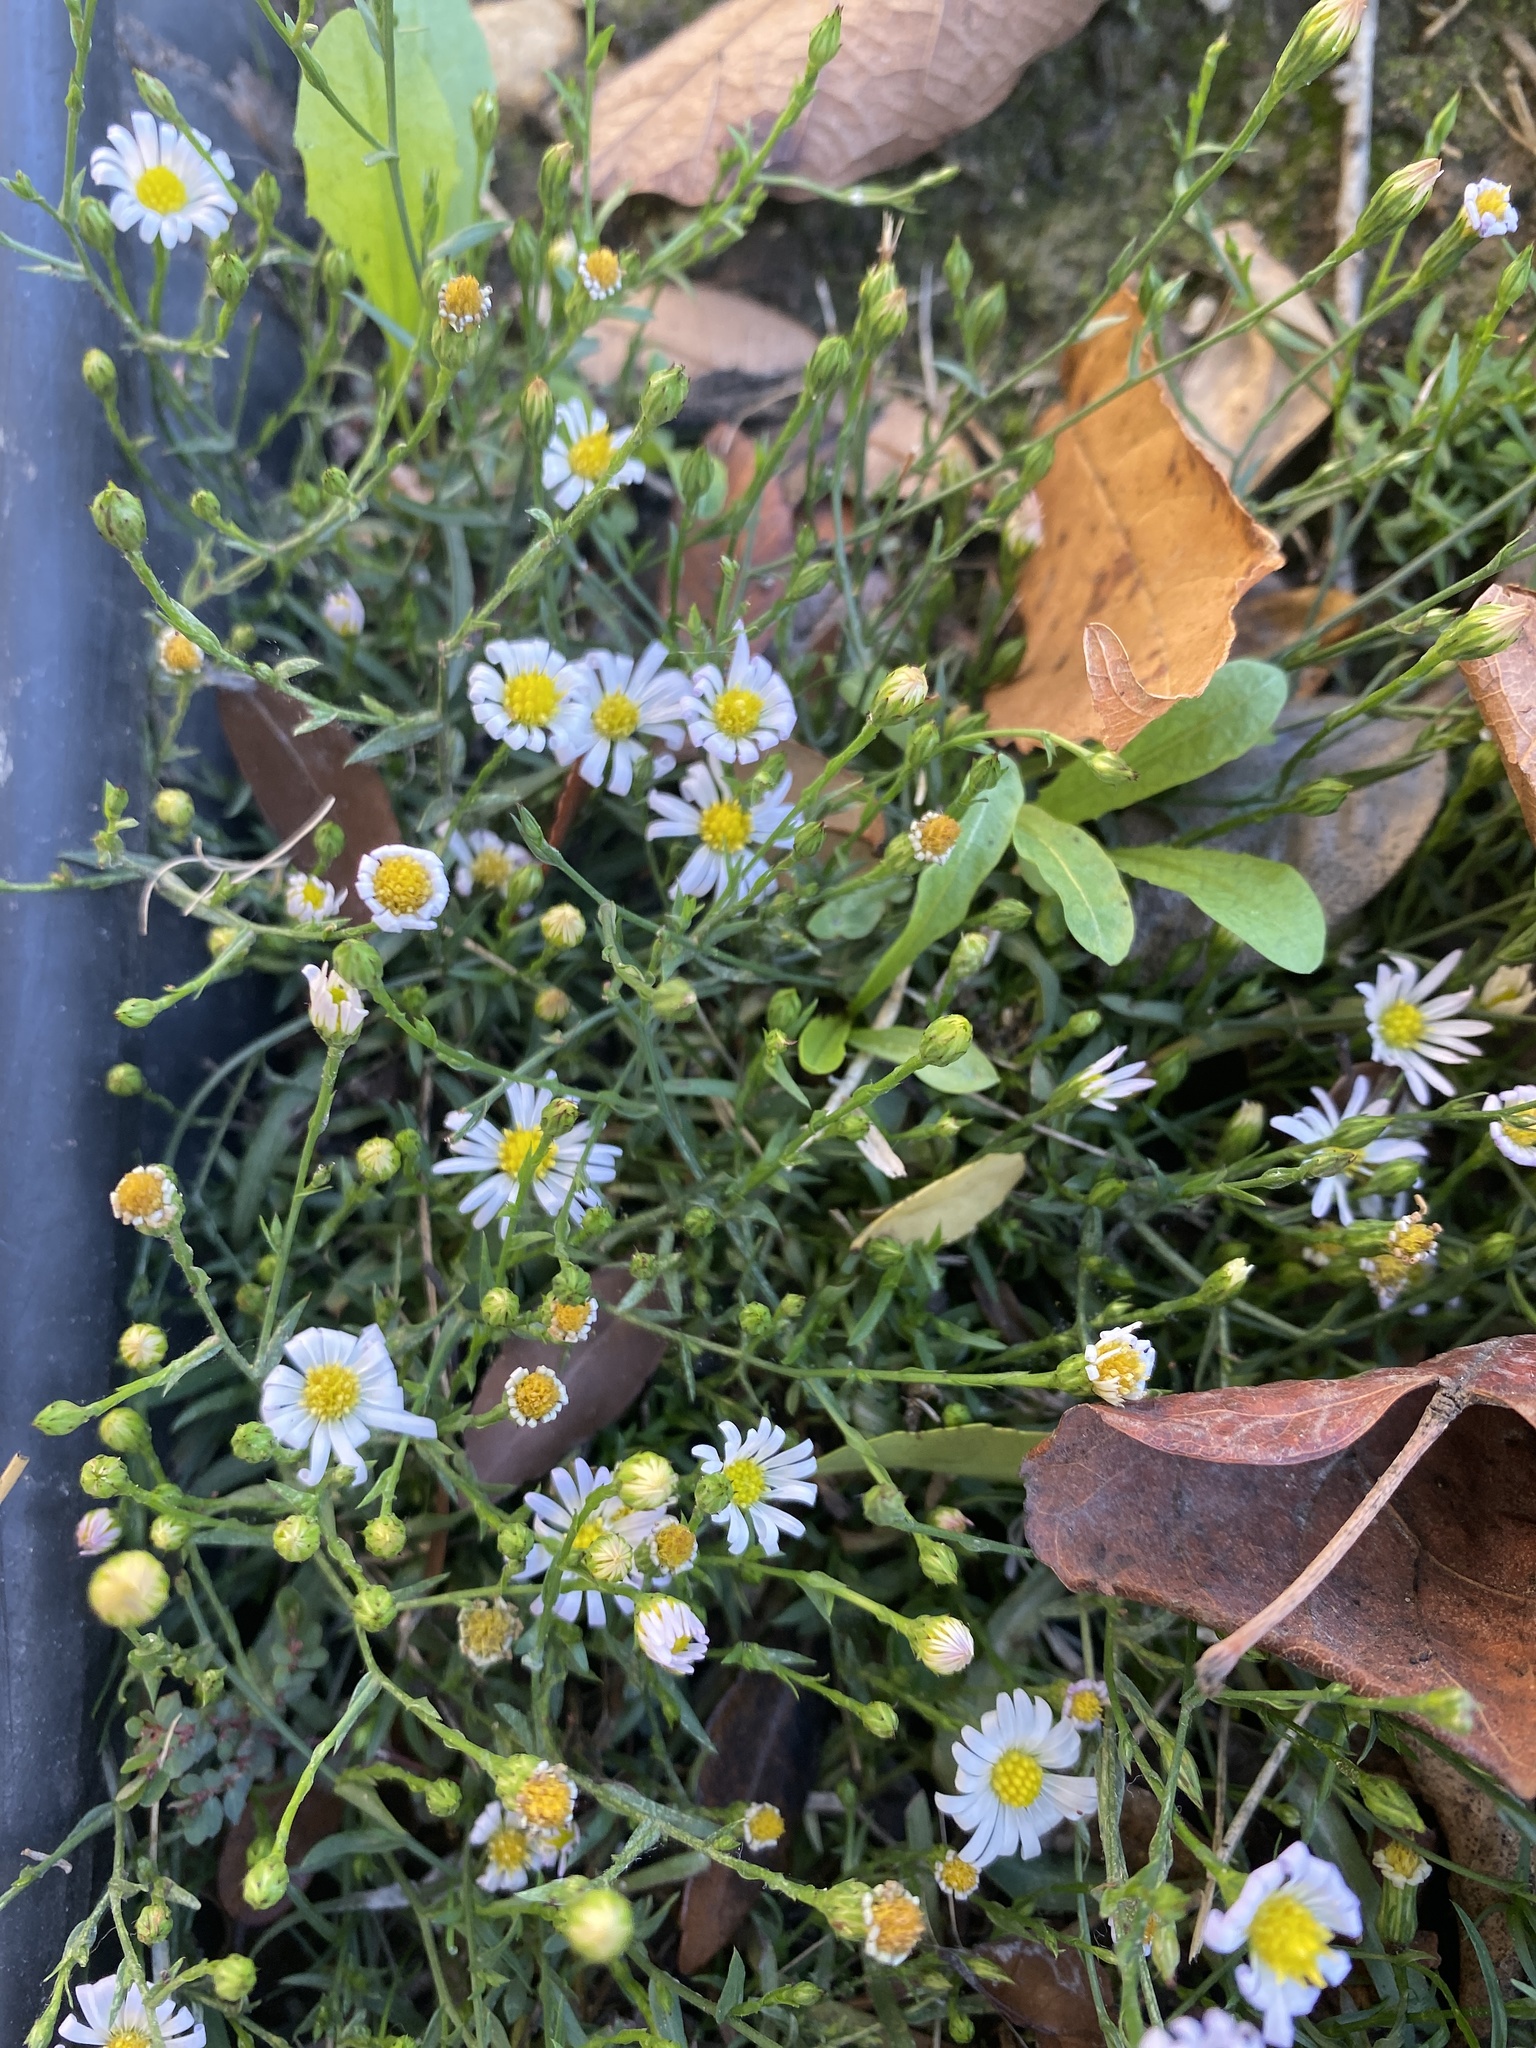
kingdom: Plantae
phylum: Tracheophyta
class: Magnoliopsida
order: Asterales
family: Asteraceae
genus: Symphyotrichum
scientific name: Symphyotrichum divaricatum
